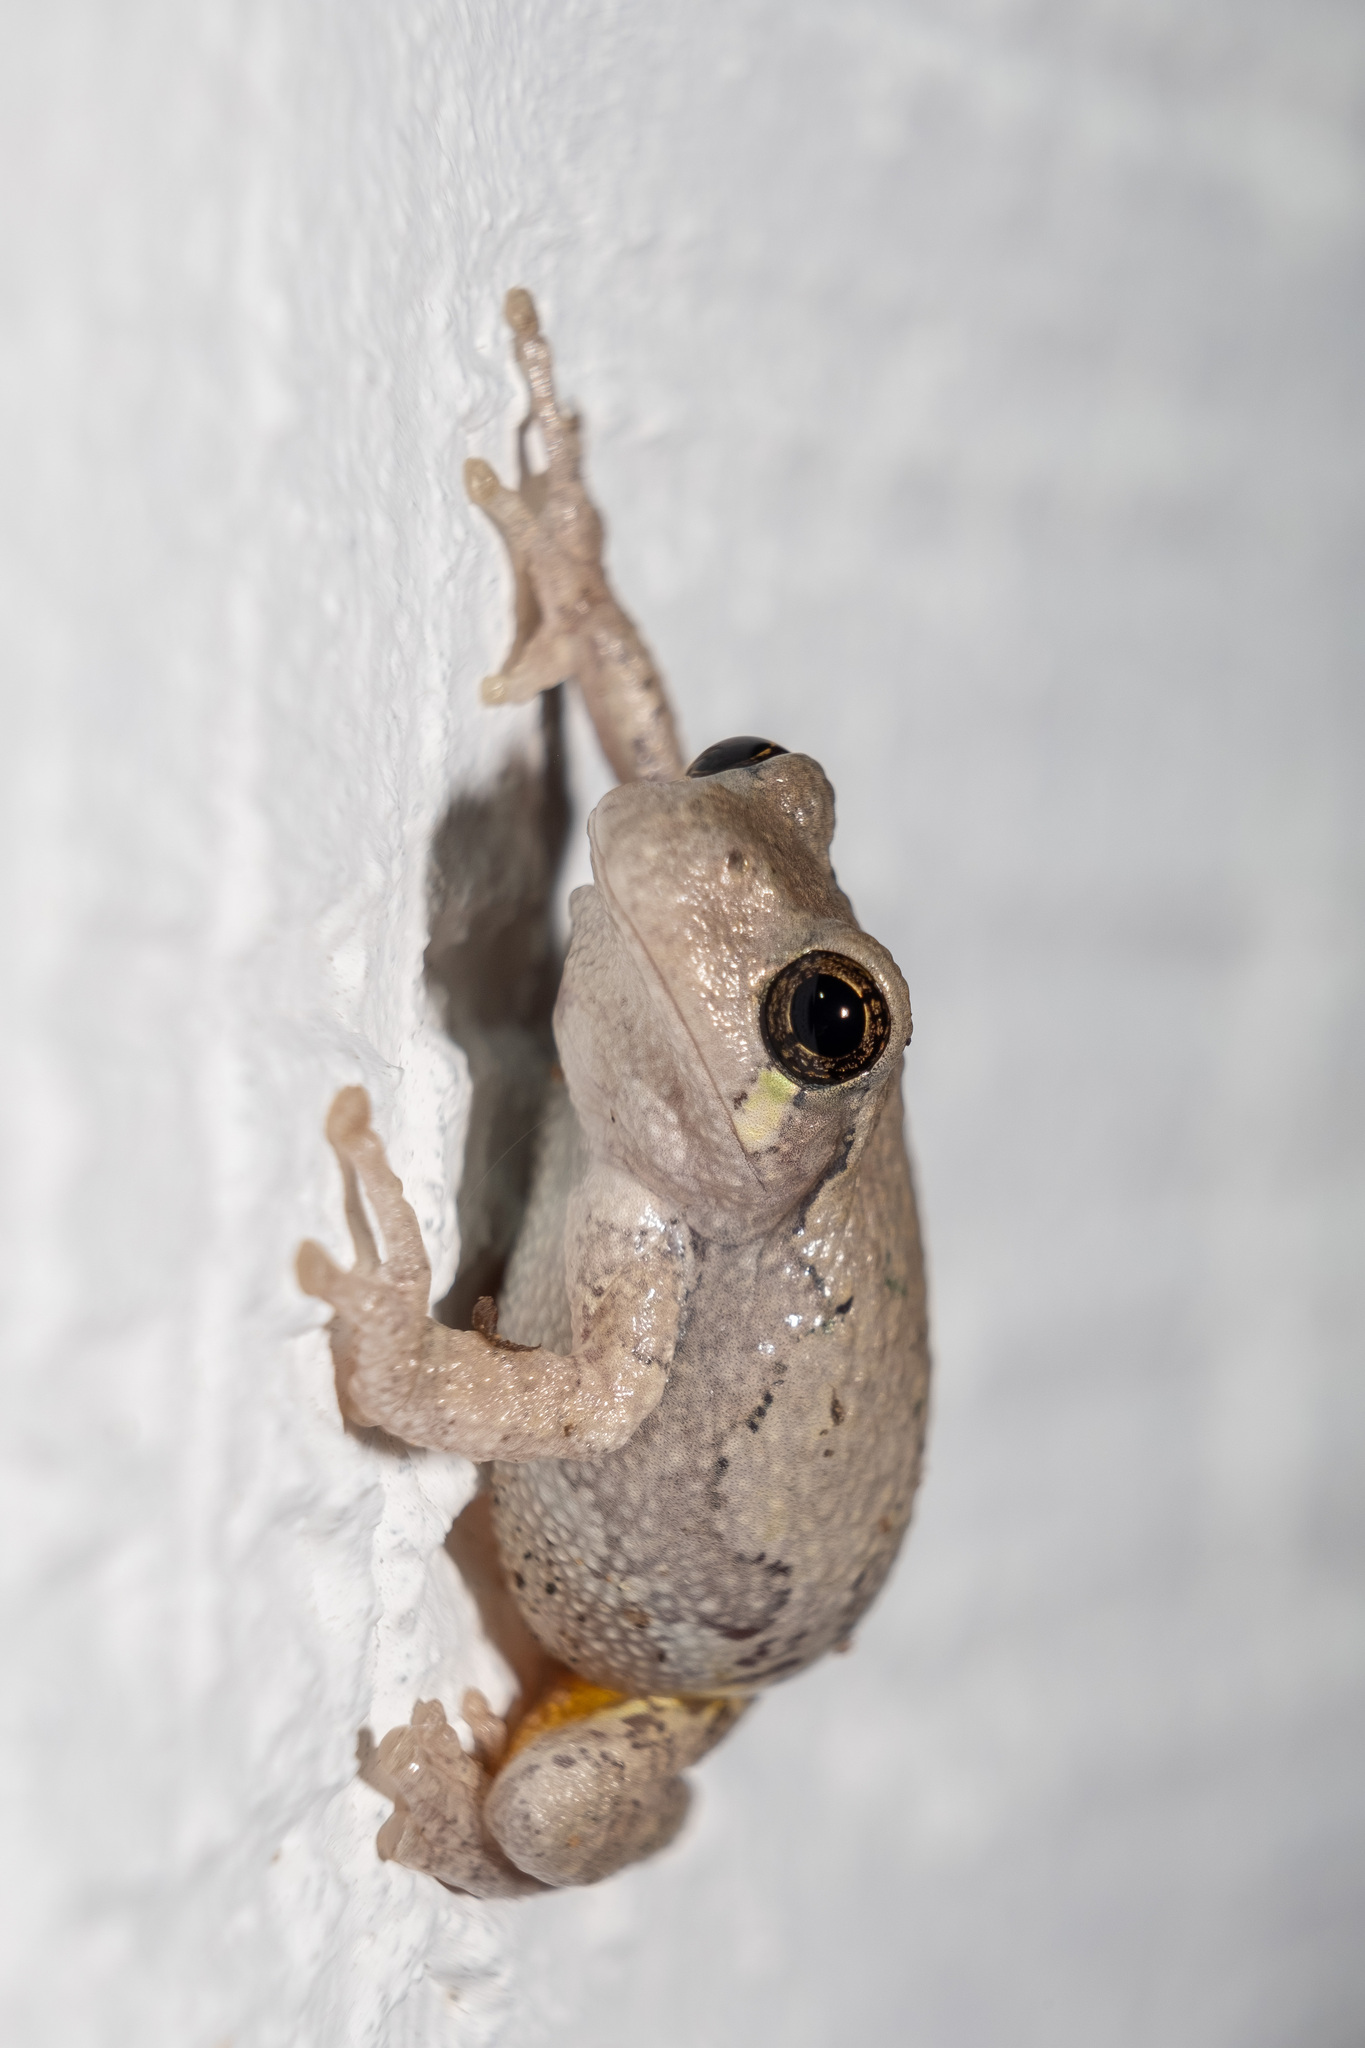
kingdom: Animalia
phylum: Chordata
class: Amphibia
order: Anura
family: Hylidae
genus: Dryophytes
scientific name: Dryophytes versicolor
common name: Gray treefrog
